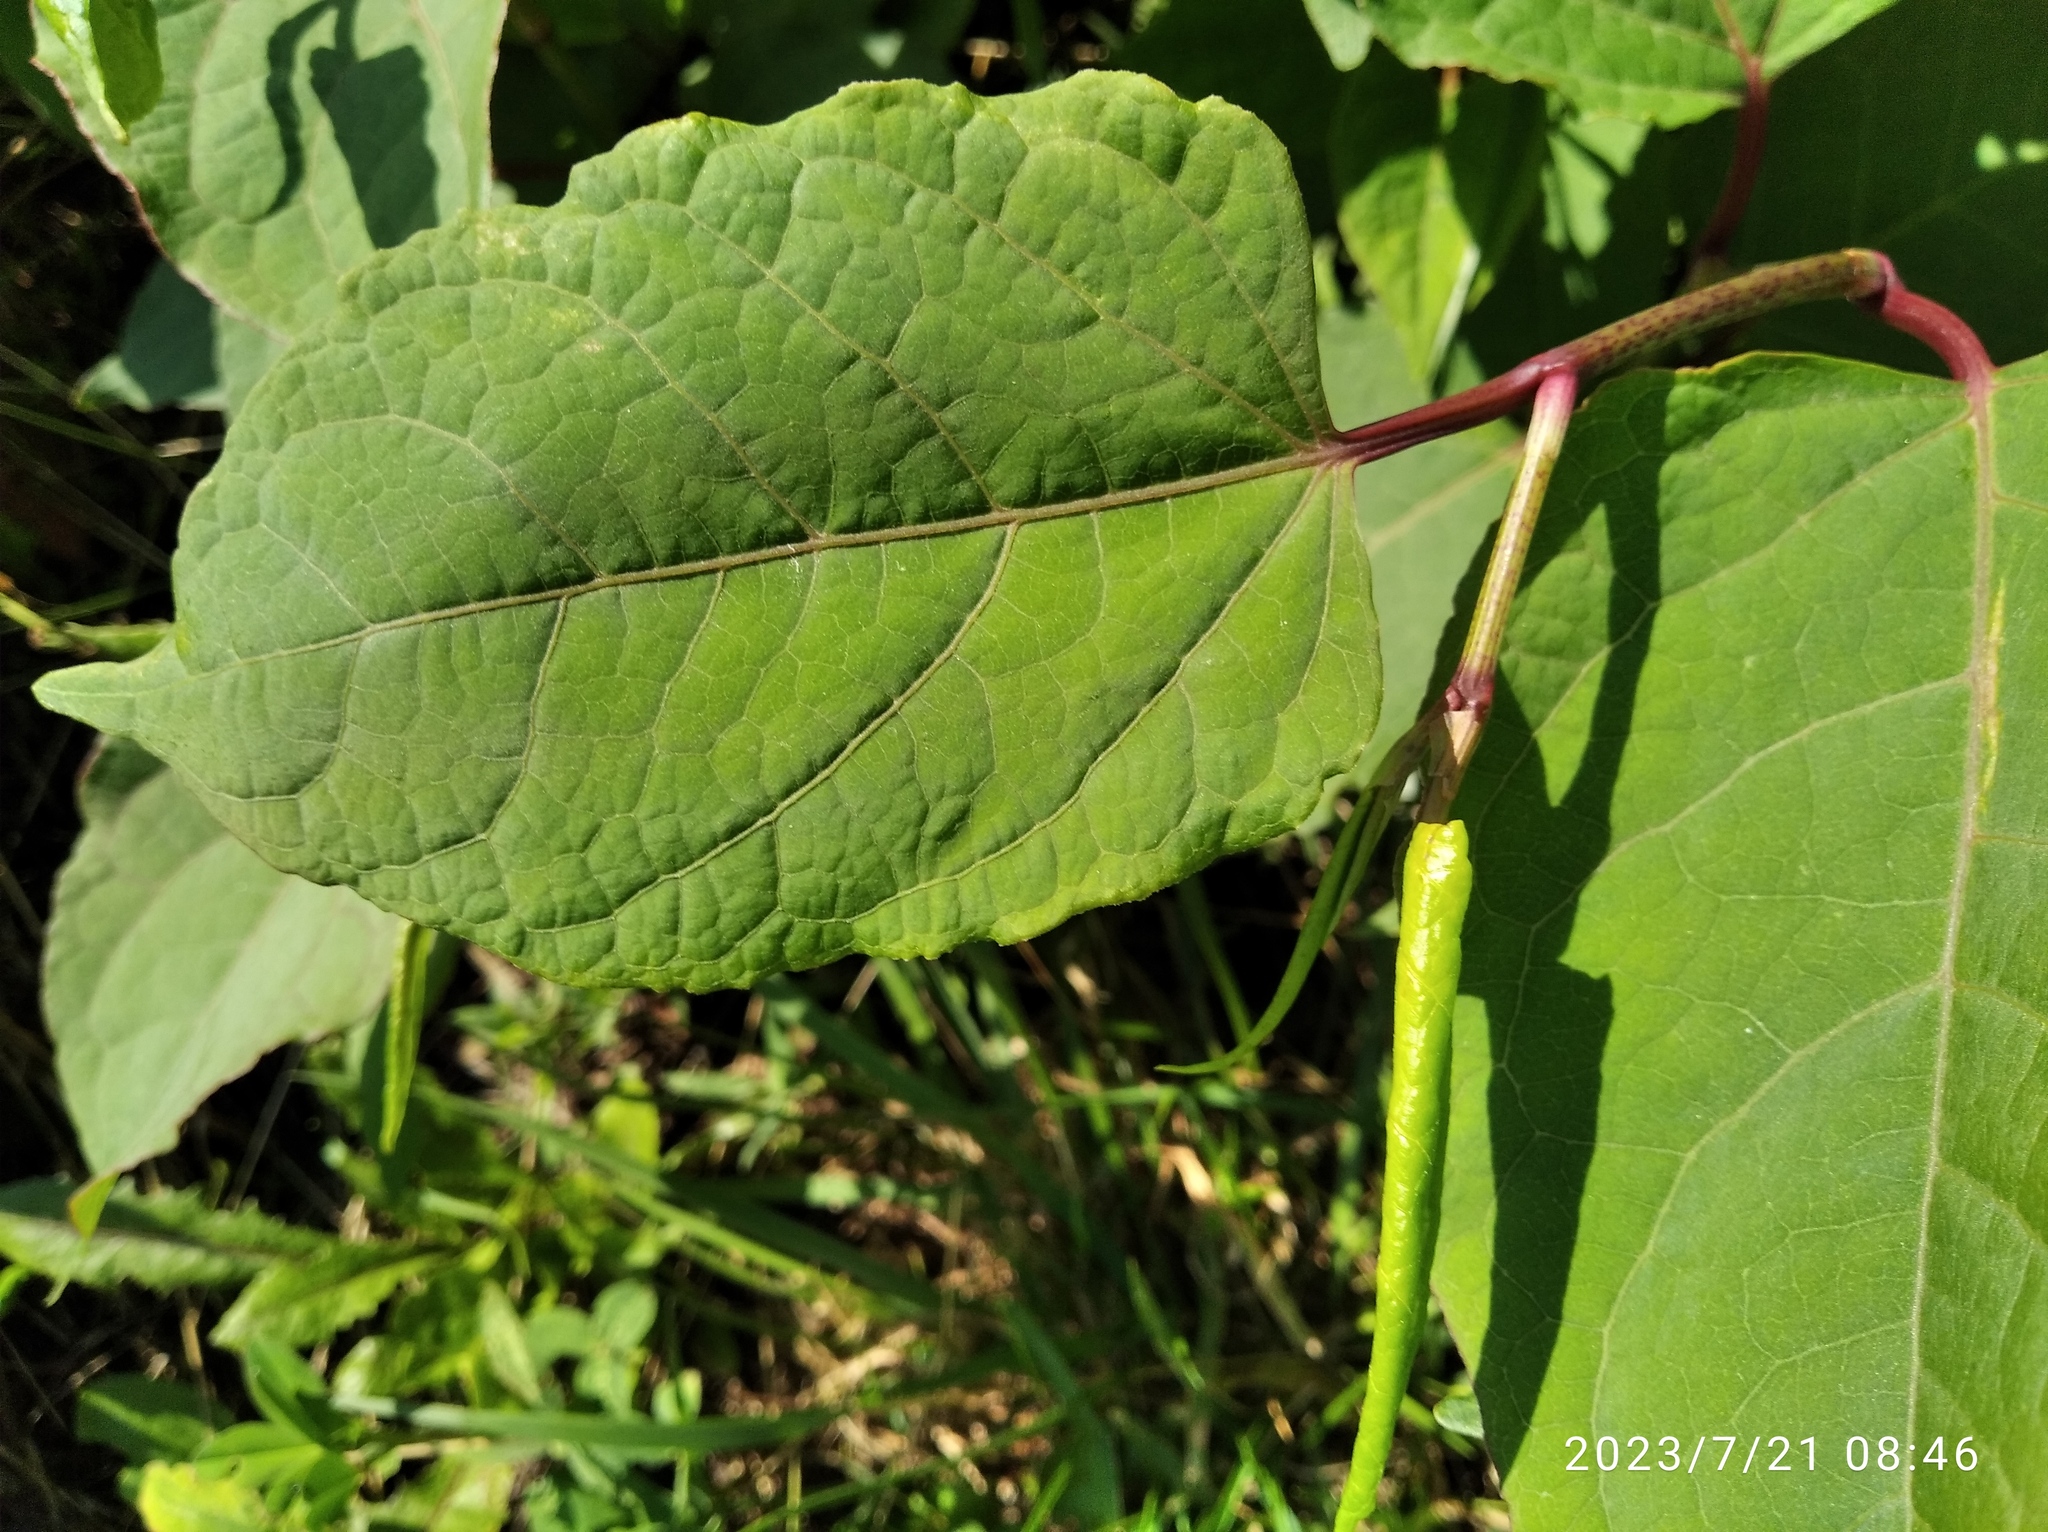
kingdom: Plantae
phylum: Tracheophyta
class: Magnoliopsida
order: Caryophyllales
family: Polygonaceae
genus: Reynoutria
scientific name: Reynoutria bohemica
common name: Bohemian knotweed
